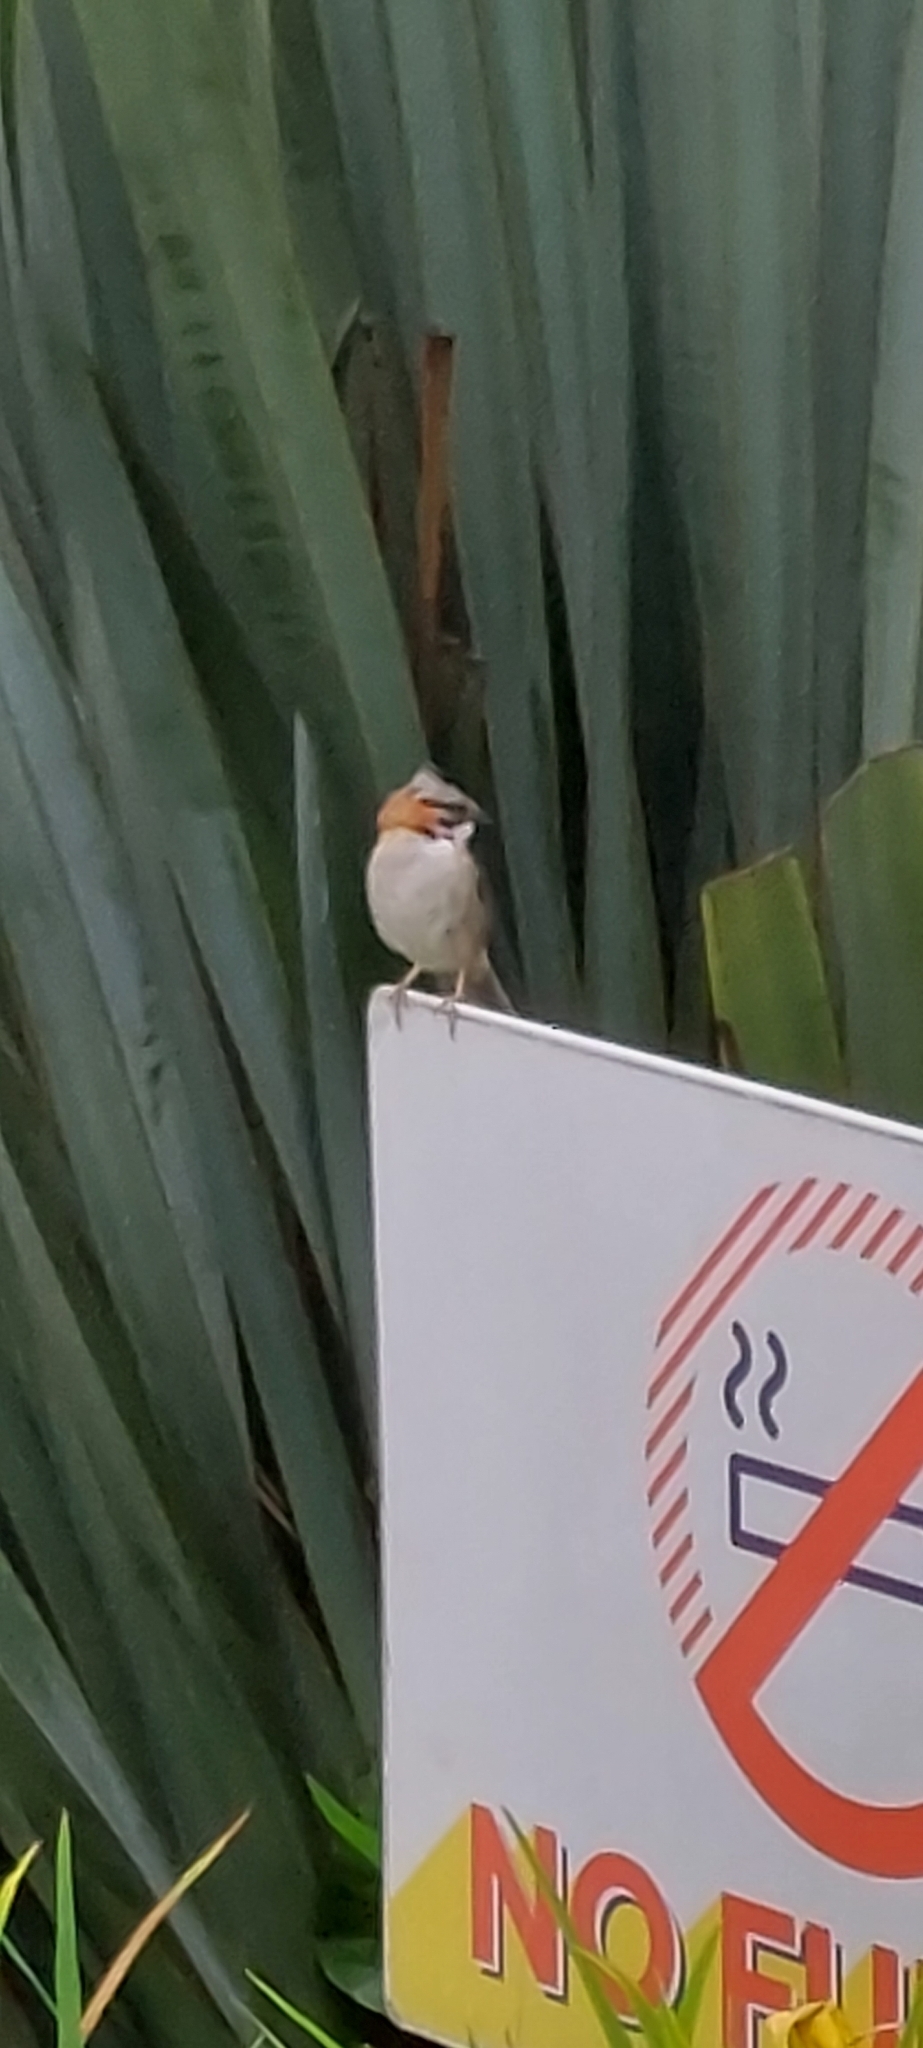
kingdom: Animalia
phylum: Chordata
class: Aves
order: Passeriformes
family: Passerellidae
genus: Zonotrichia
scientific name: Zonotrichia capensis
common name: Rufous-collared sparrow
